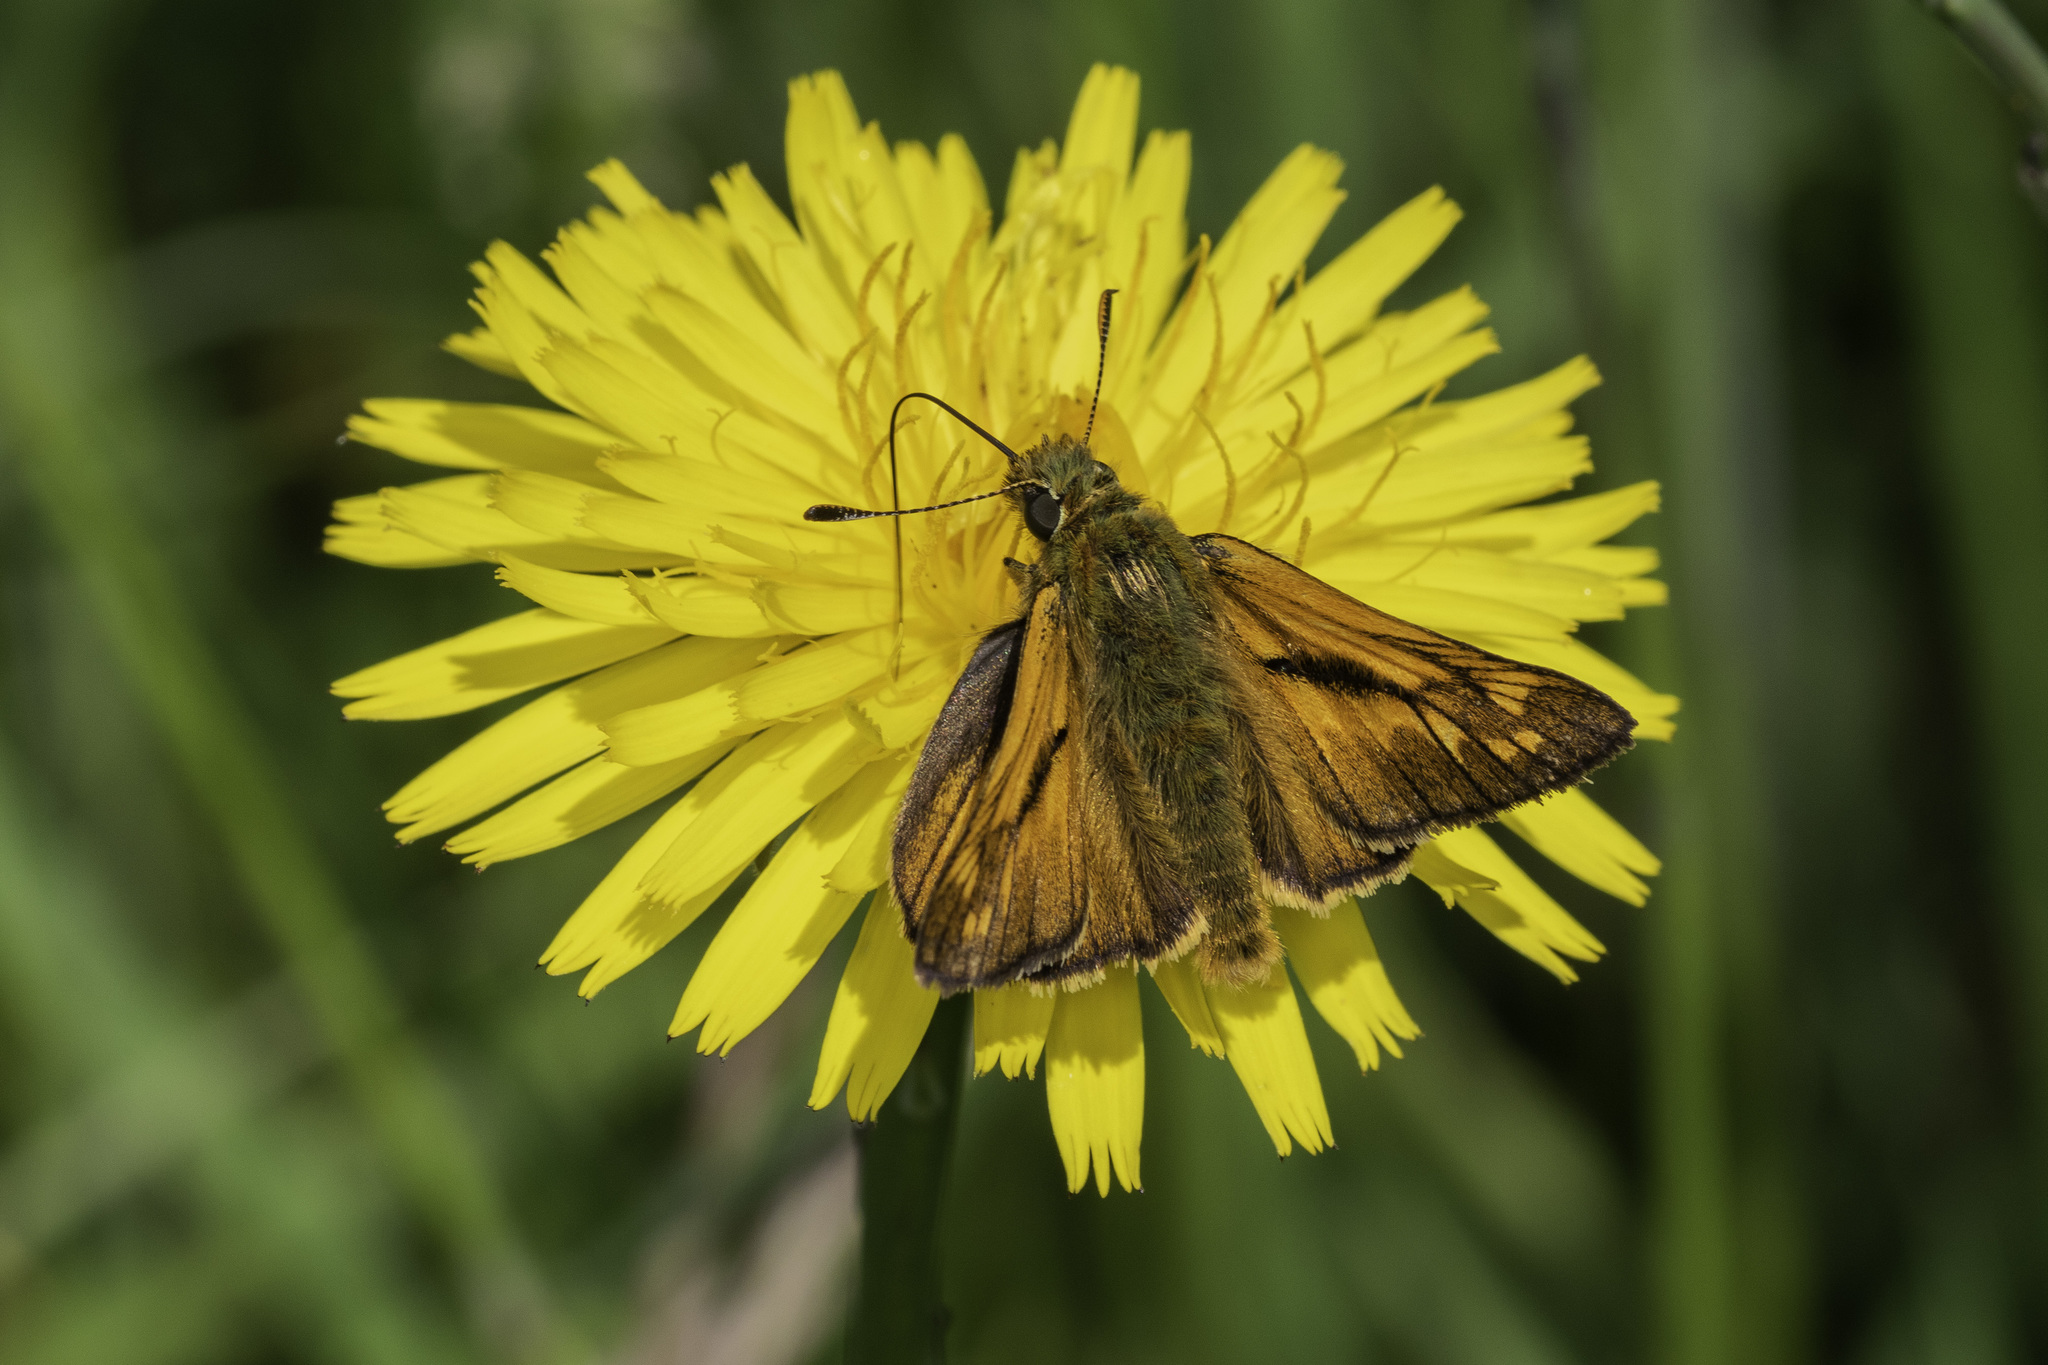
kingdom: Animalia
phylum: Arthropoda
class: Insecta
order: Lepidoptera
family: Hesperiidae
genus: Ochlodes
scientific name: Ochlodes venata
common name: Large skipper
